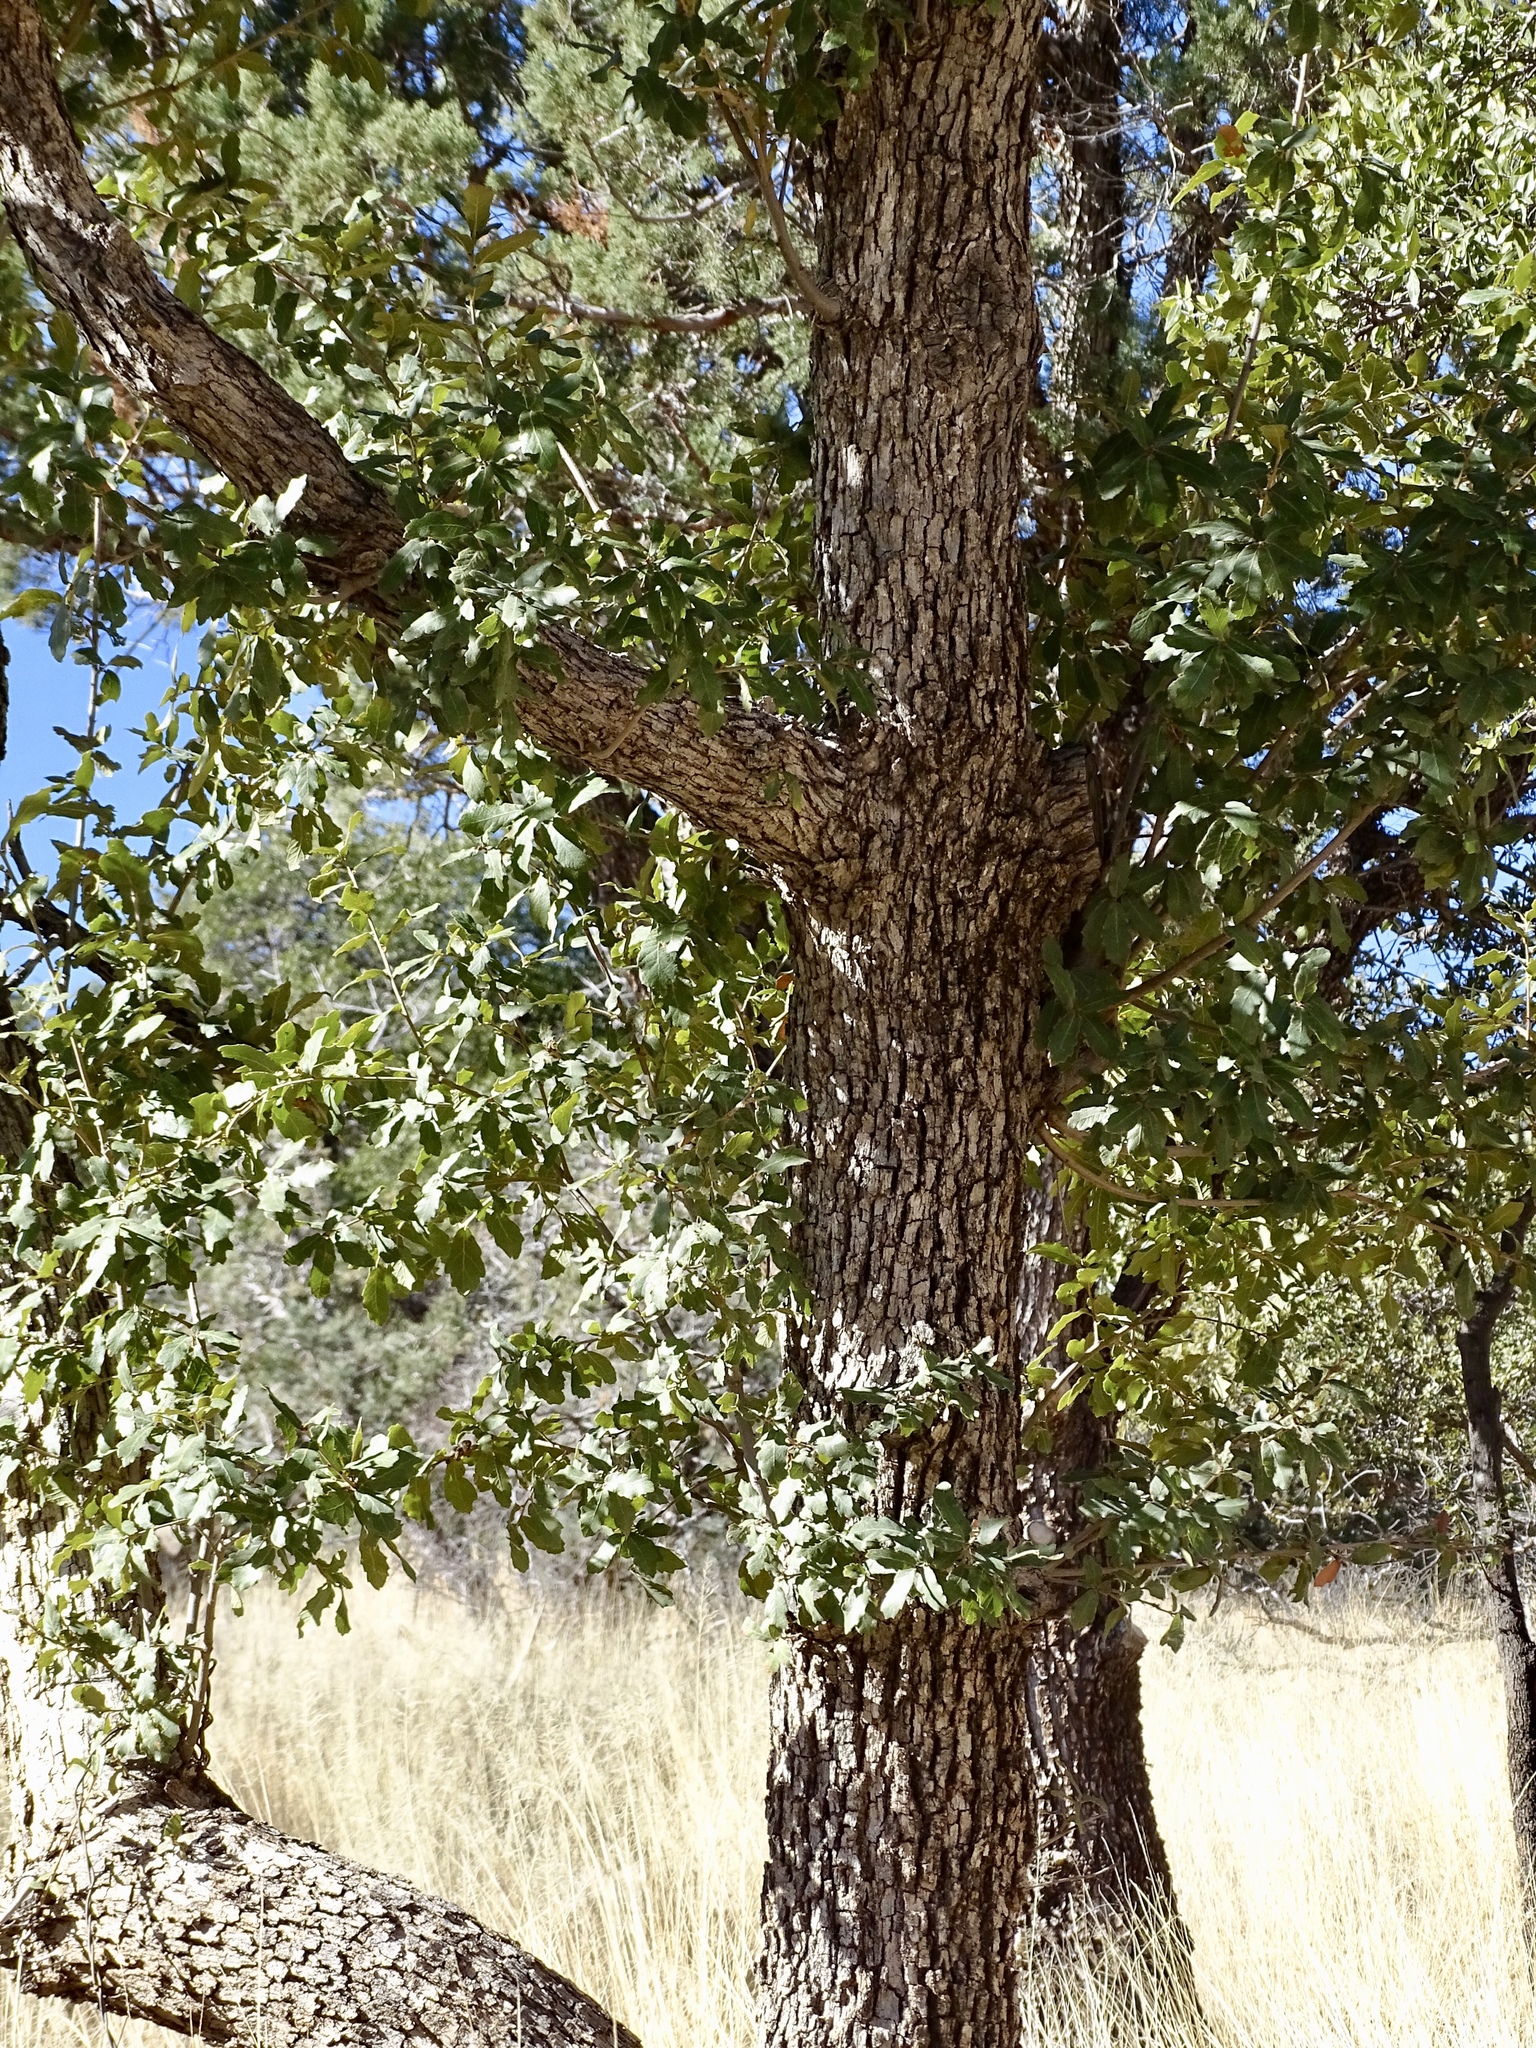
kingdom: Plantae
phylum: Tracheophyta
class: Magnoliopsida
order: Fagales
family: Fagaceae
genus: Quercus
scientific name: Quercus arizonica
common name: Arizona white oak
